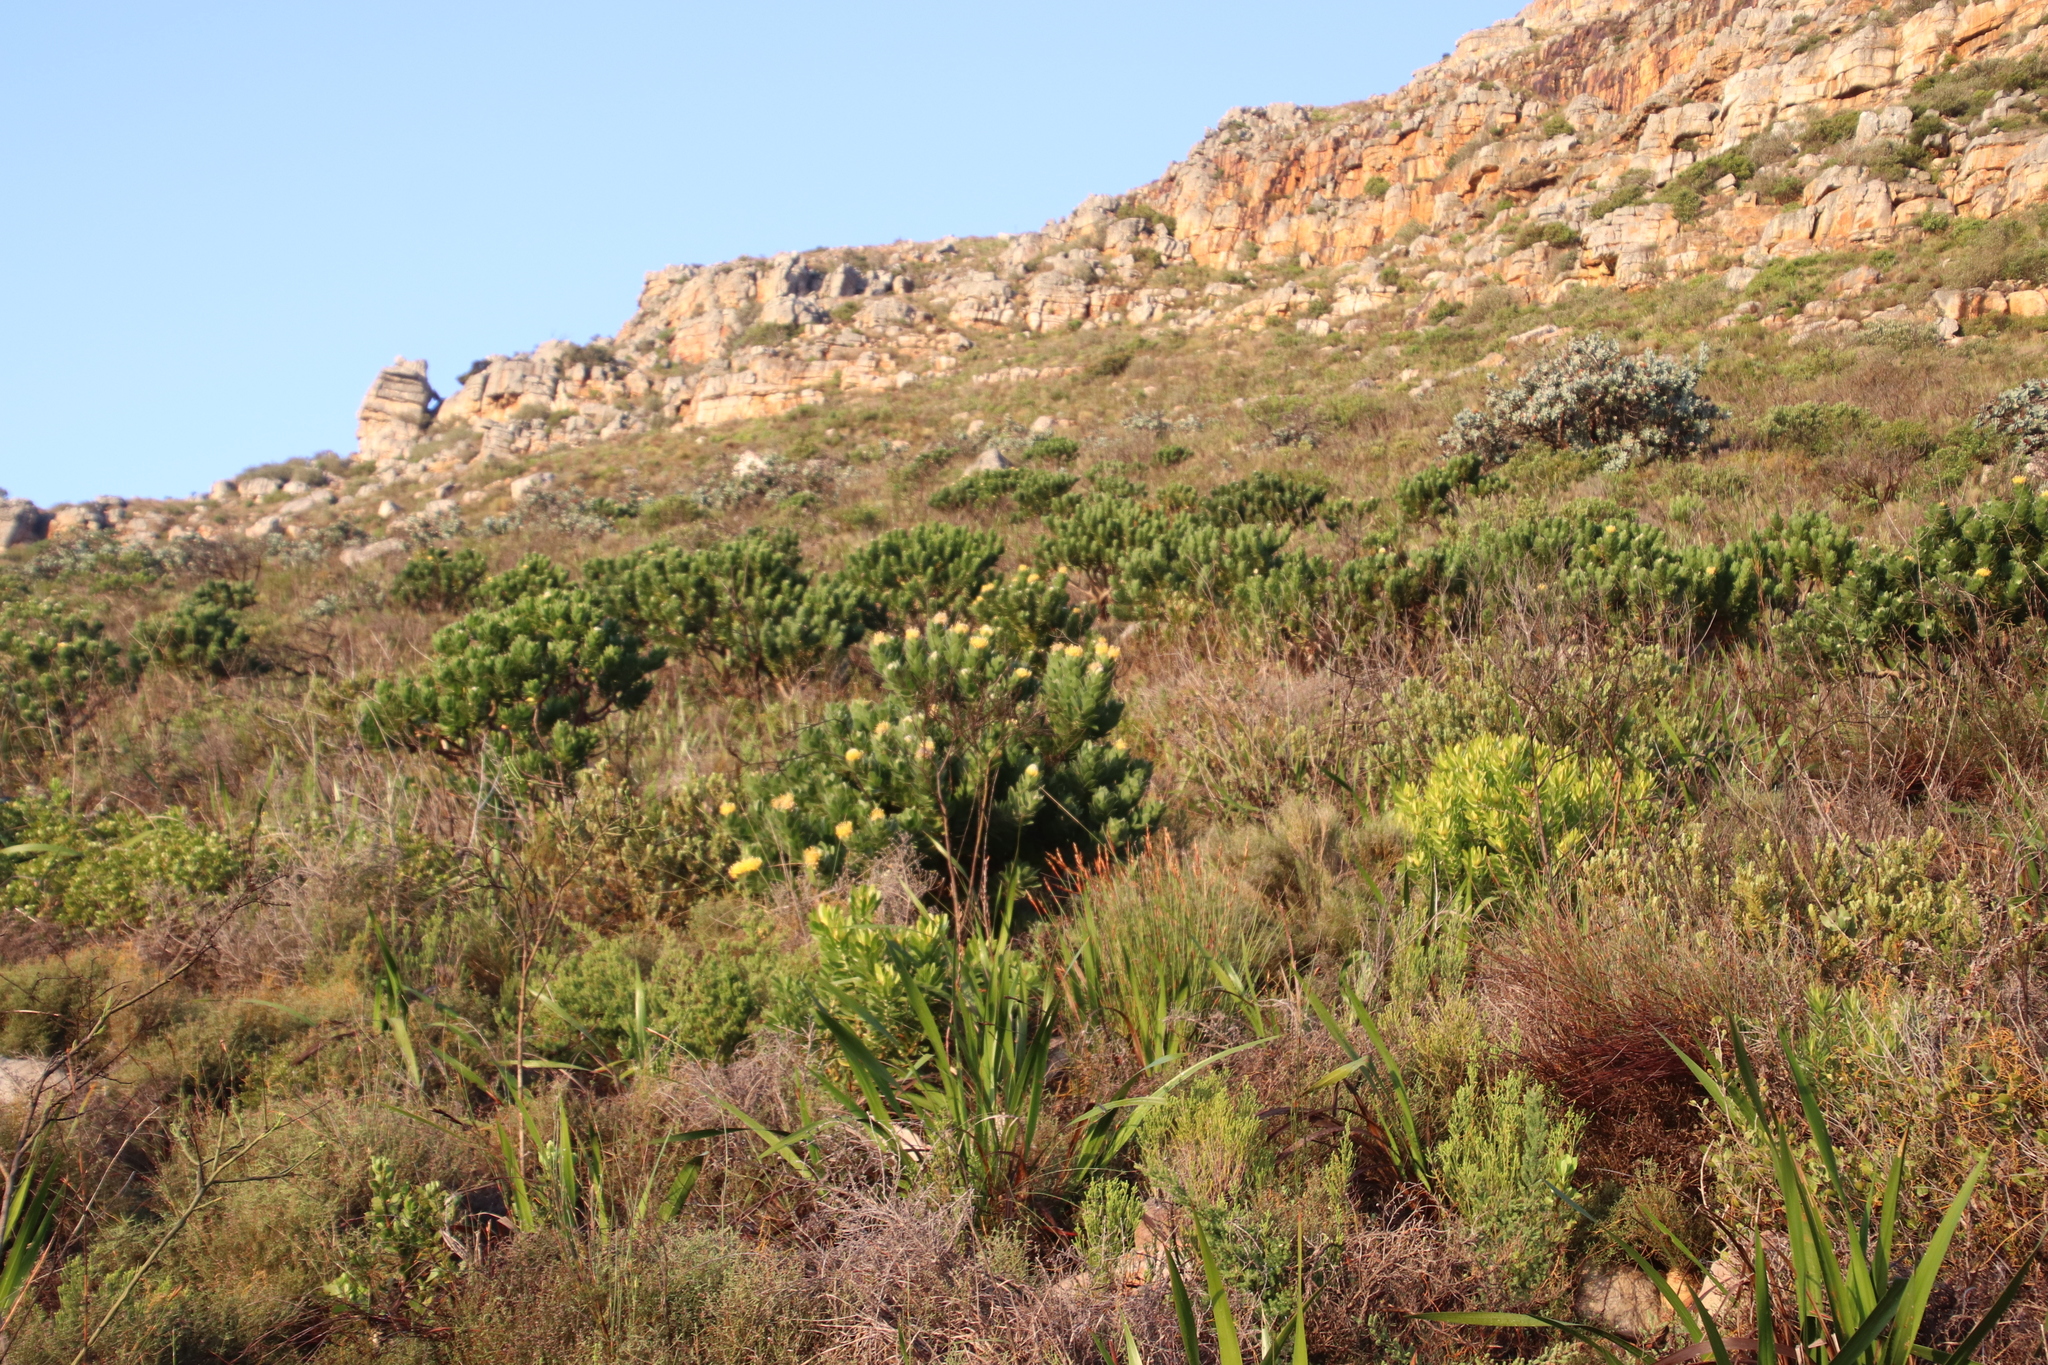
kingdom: Plantae
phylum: Tracheophyta
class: Magnoliopsida
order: Proteales
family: Proteaceae
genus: Leucospermum
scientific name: Leucospermum conocarpodendron
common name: Tree pincushion
